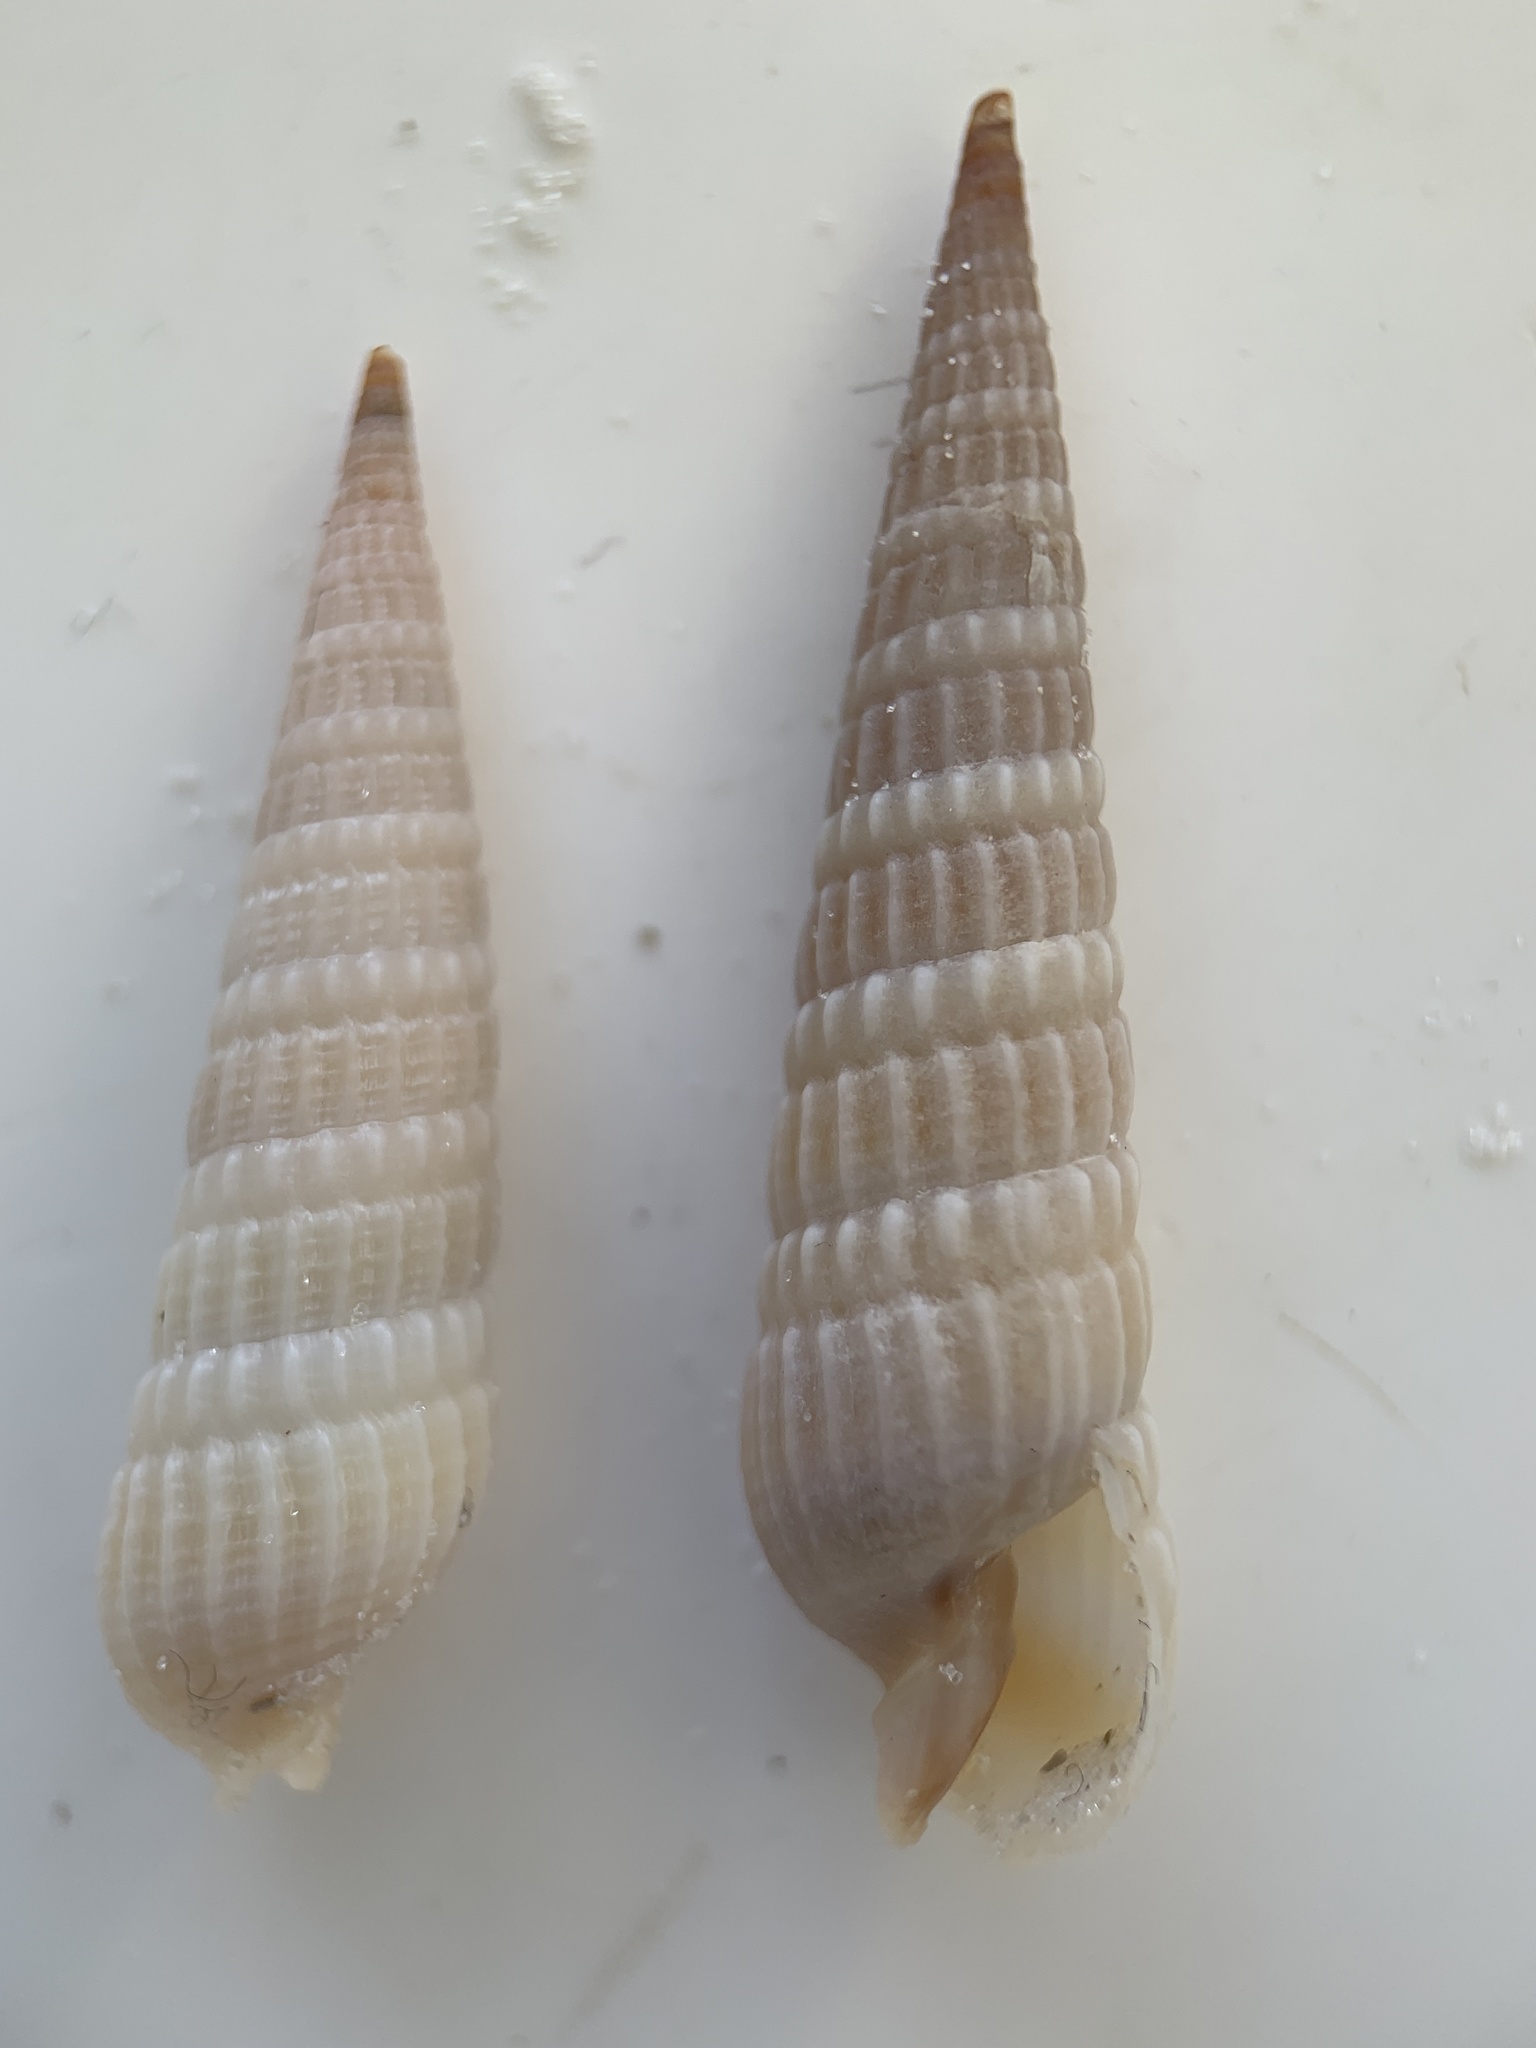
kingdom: Animalia
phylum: Mollusca
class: Gastropoda
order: Neogastropoda
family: Terebridae
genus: Neoterebra
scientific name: Neoterebra dislocata
